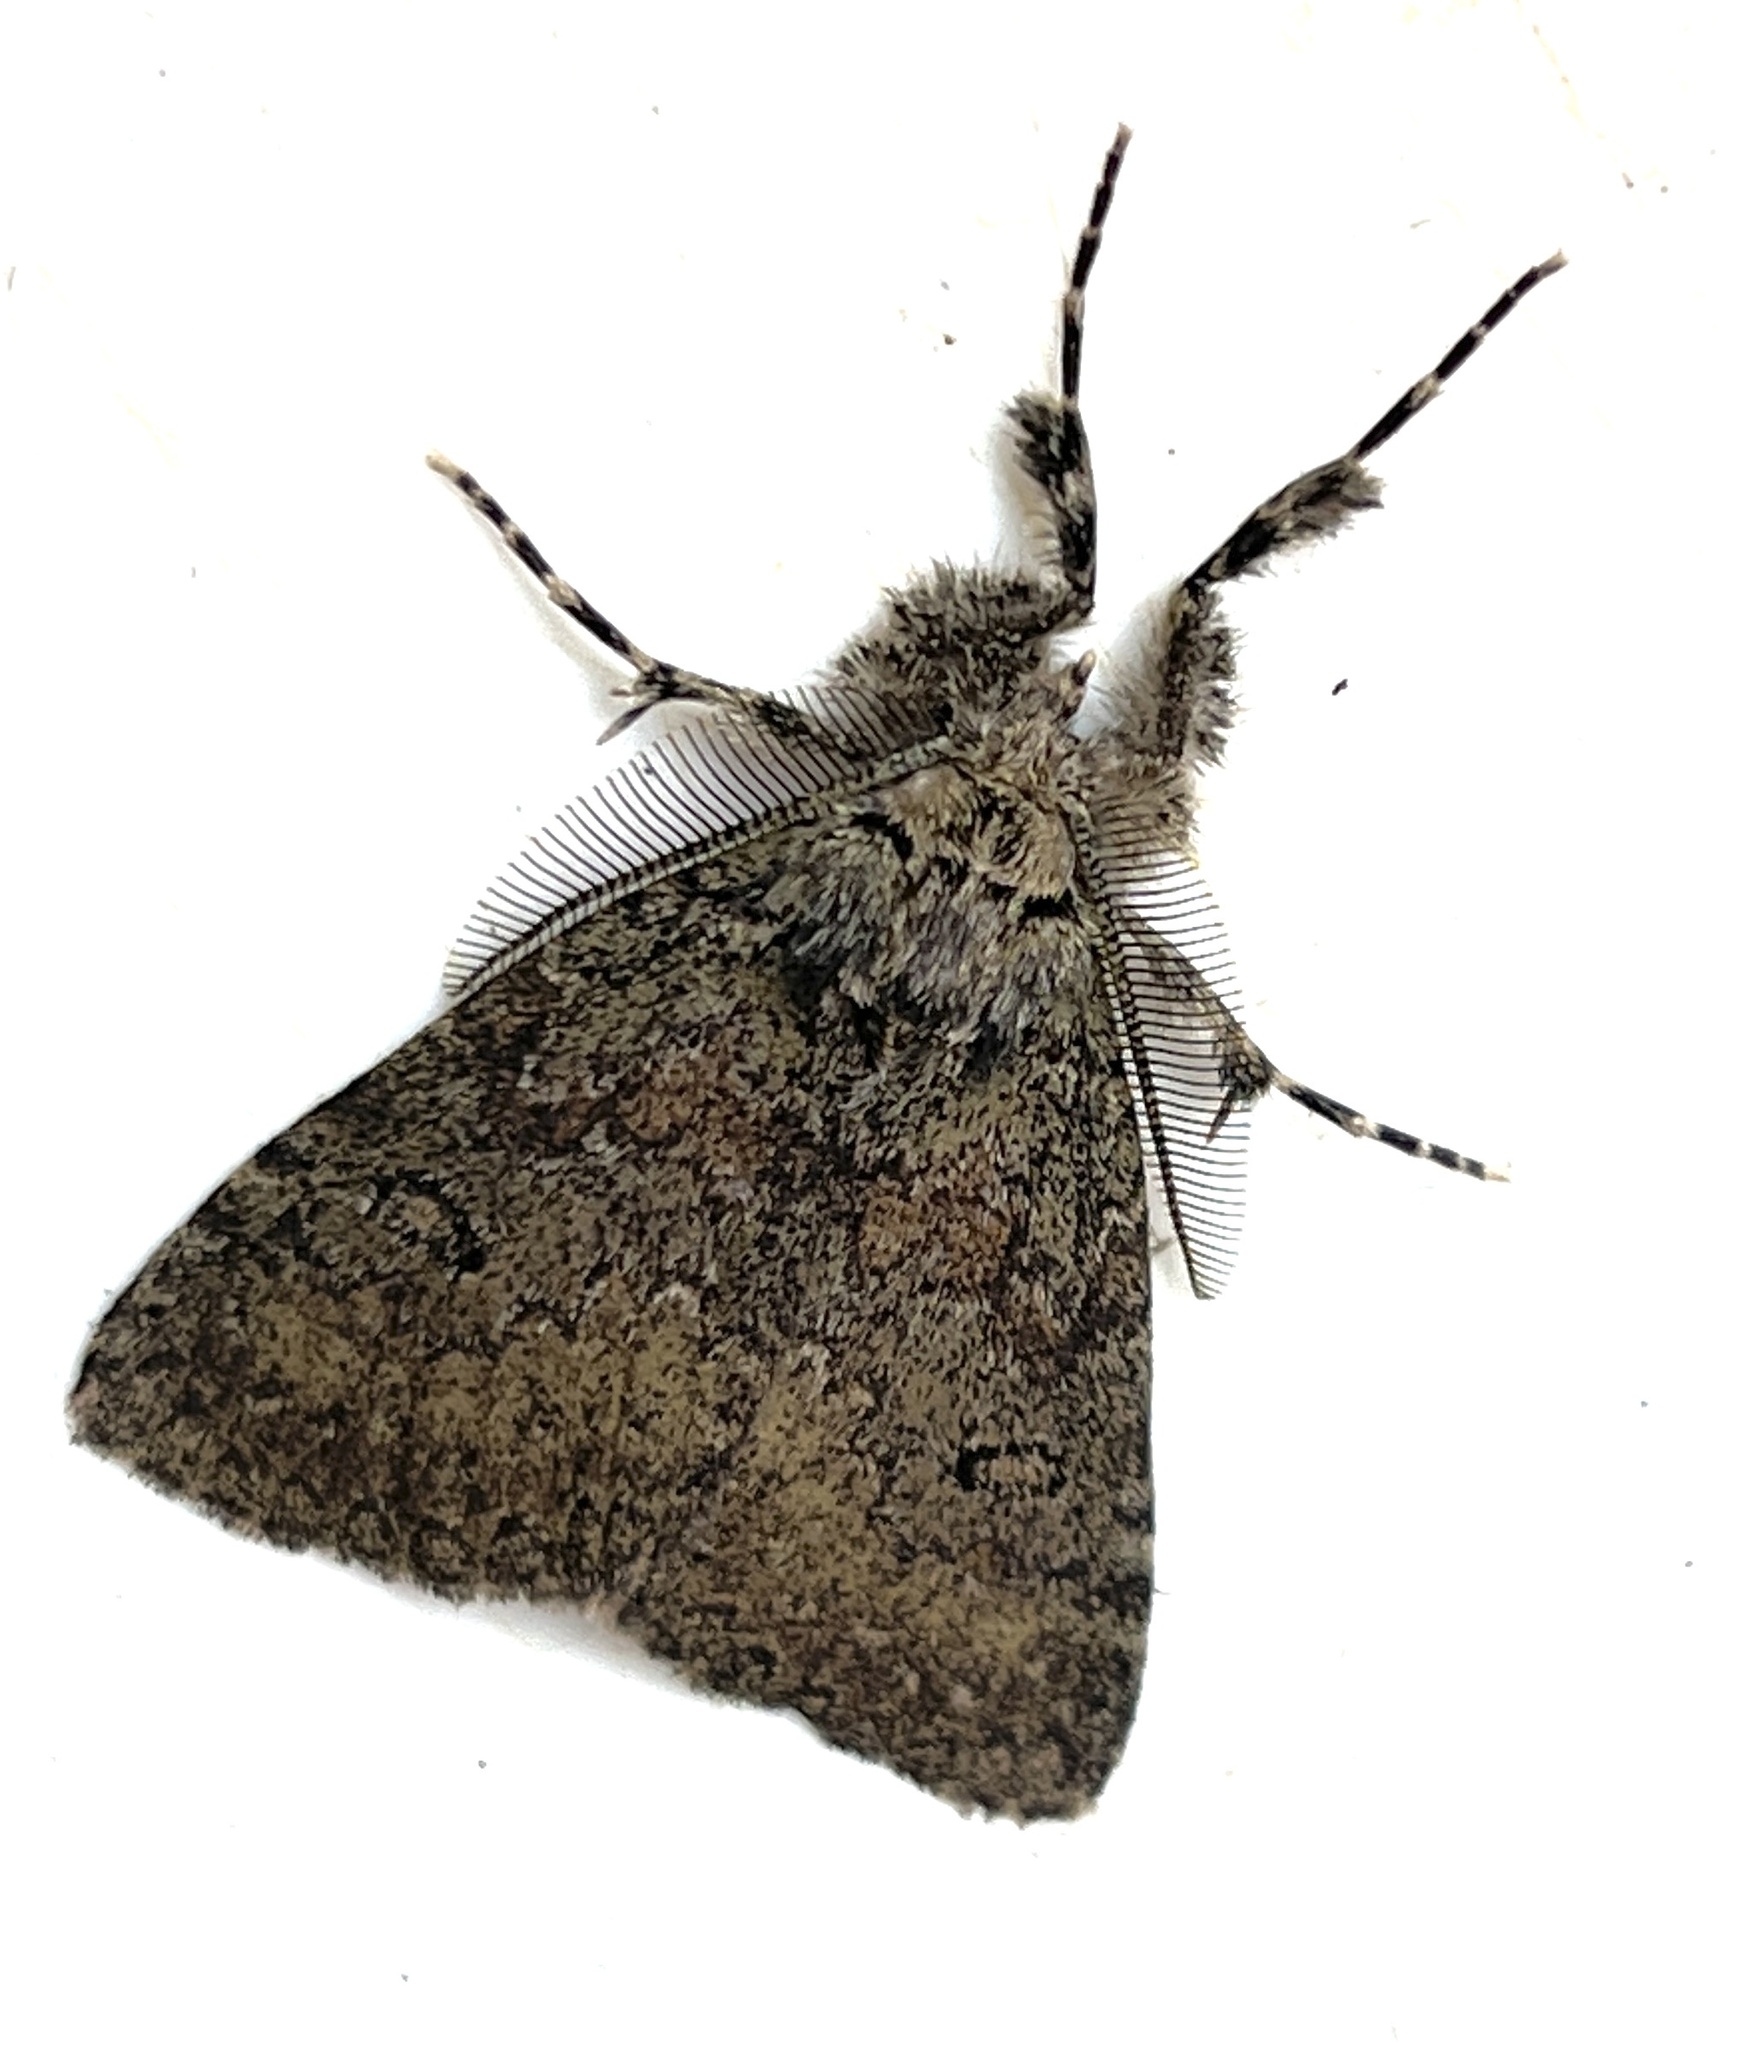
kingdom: Animalia
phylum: Arthropoda
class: Insecta
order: Lepidoptera
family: Erebidae
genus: Laelia
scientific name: Laelia fusca
